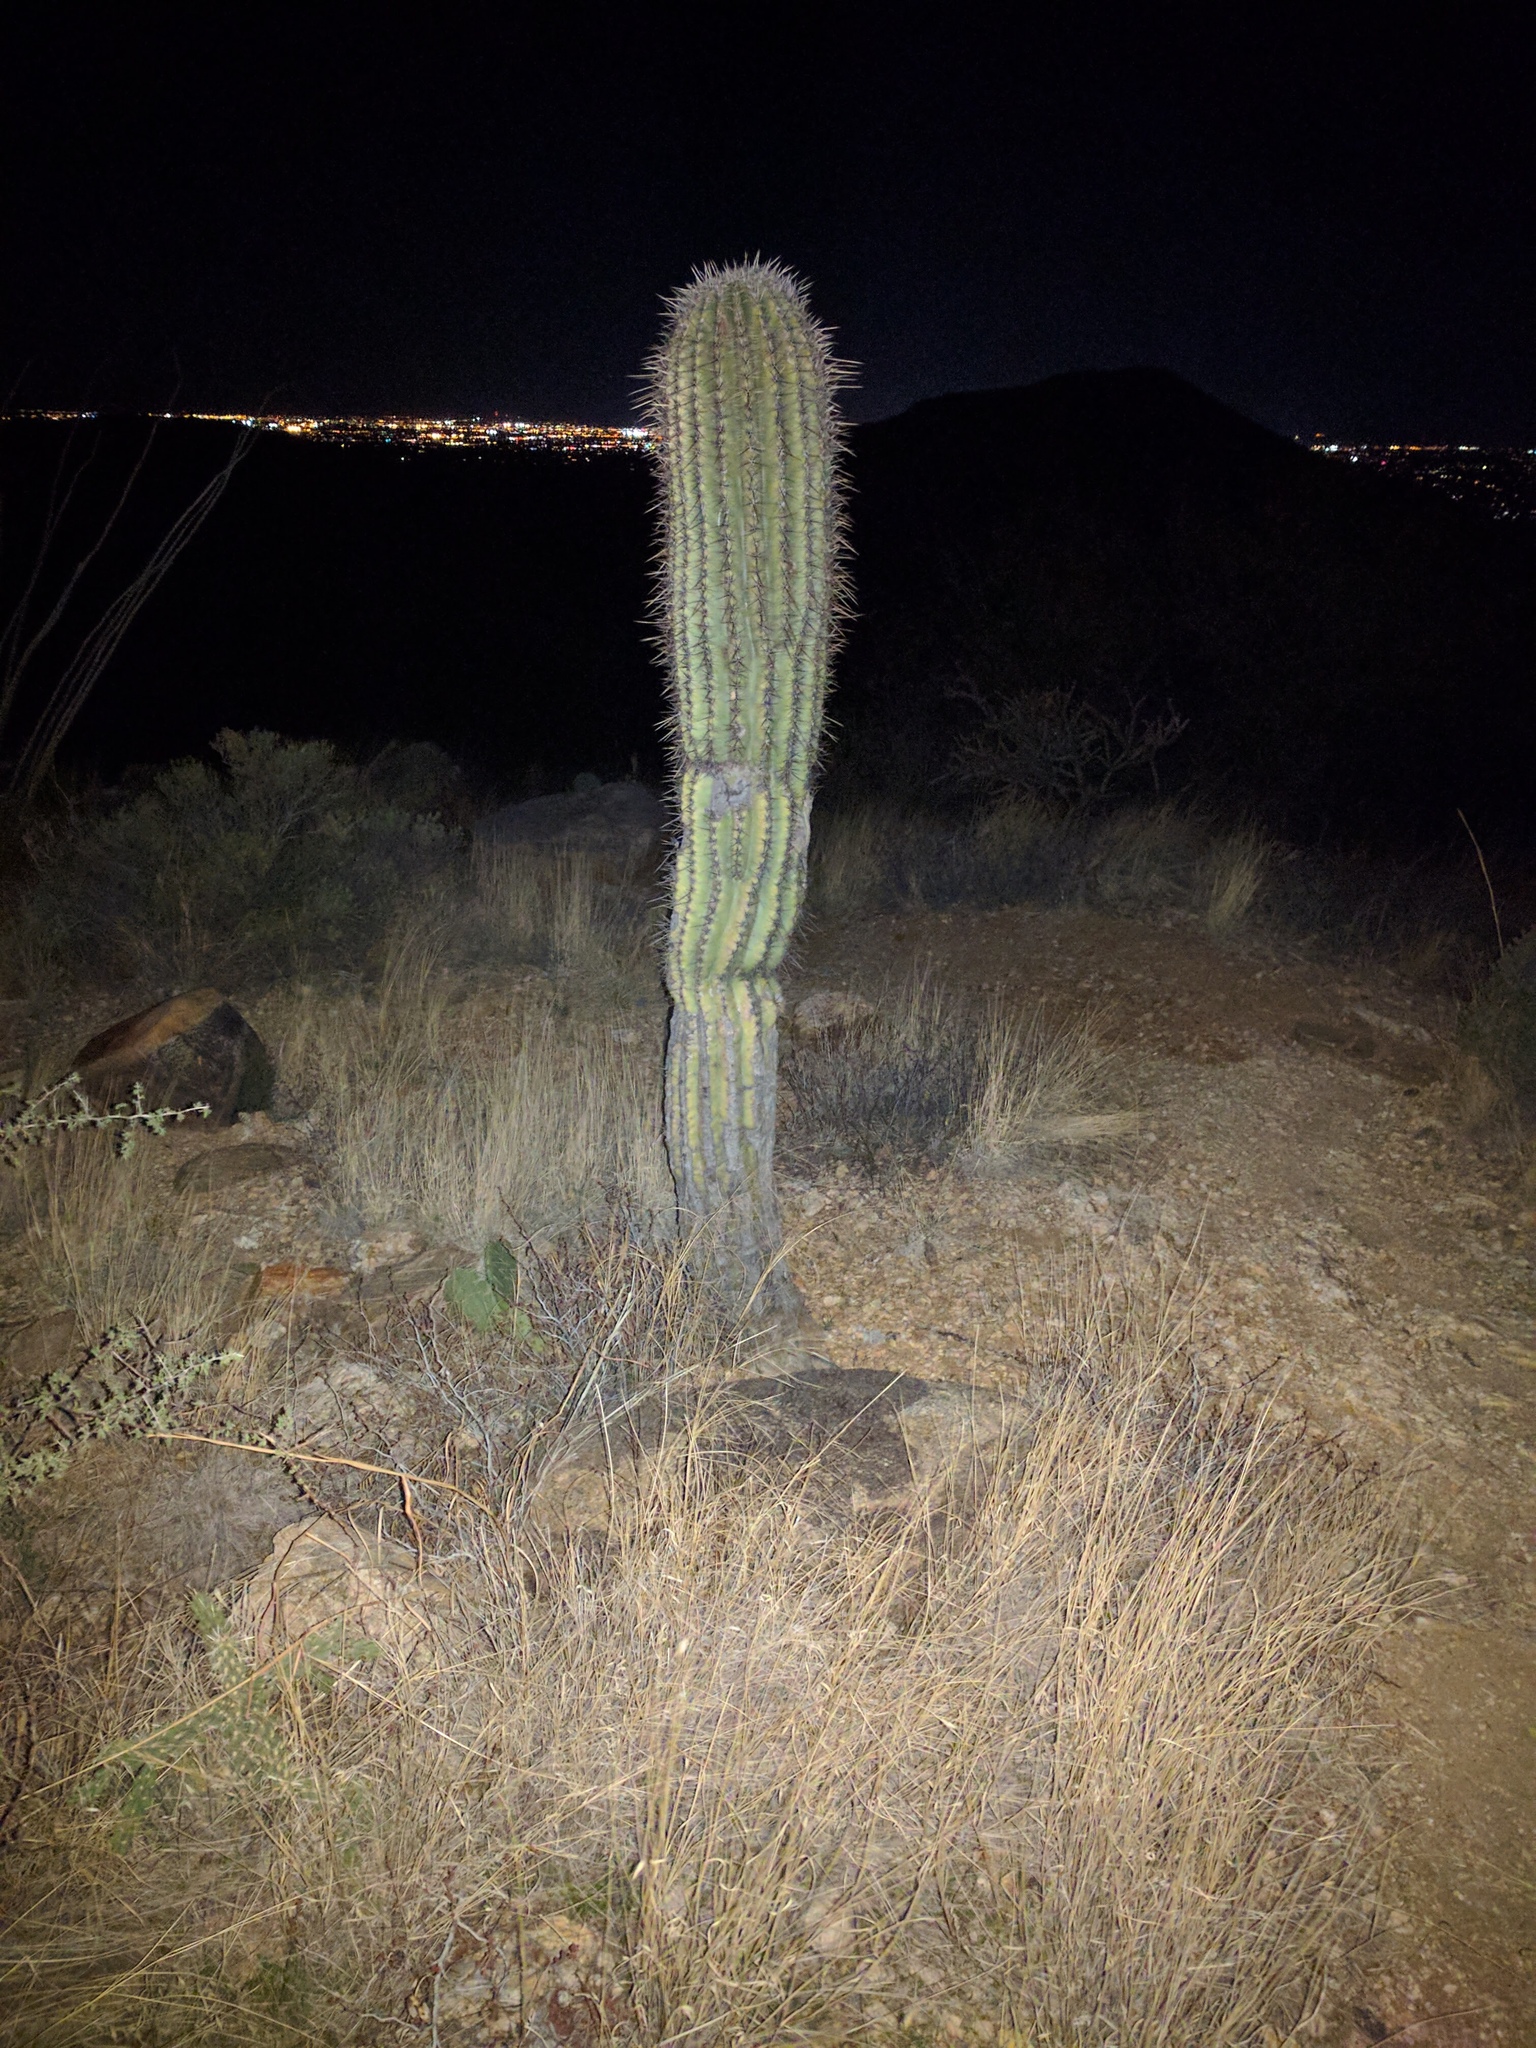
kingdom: Plantae
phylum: Tracheophyta
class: Magnoliopsida
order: Caryophyllales
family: Cactaceae
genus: Carnegiea
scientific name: Carnegiea gigantea
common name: Saguaro
